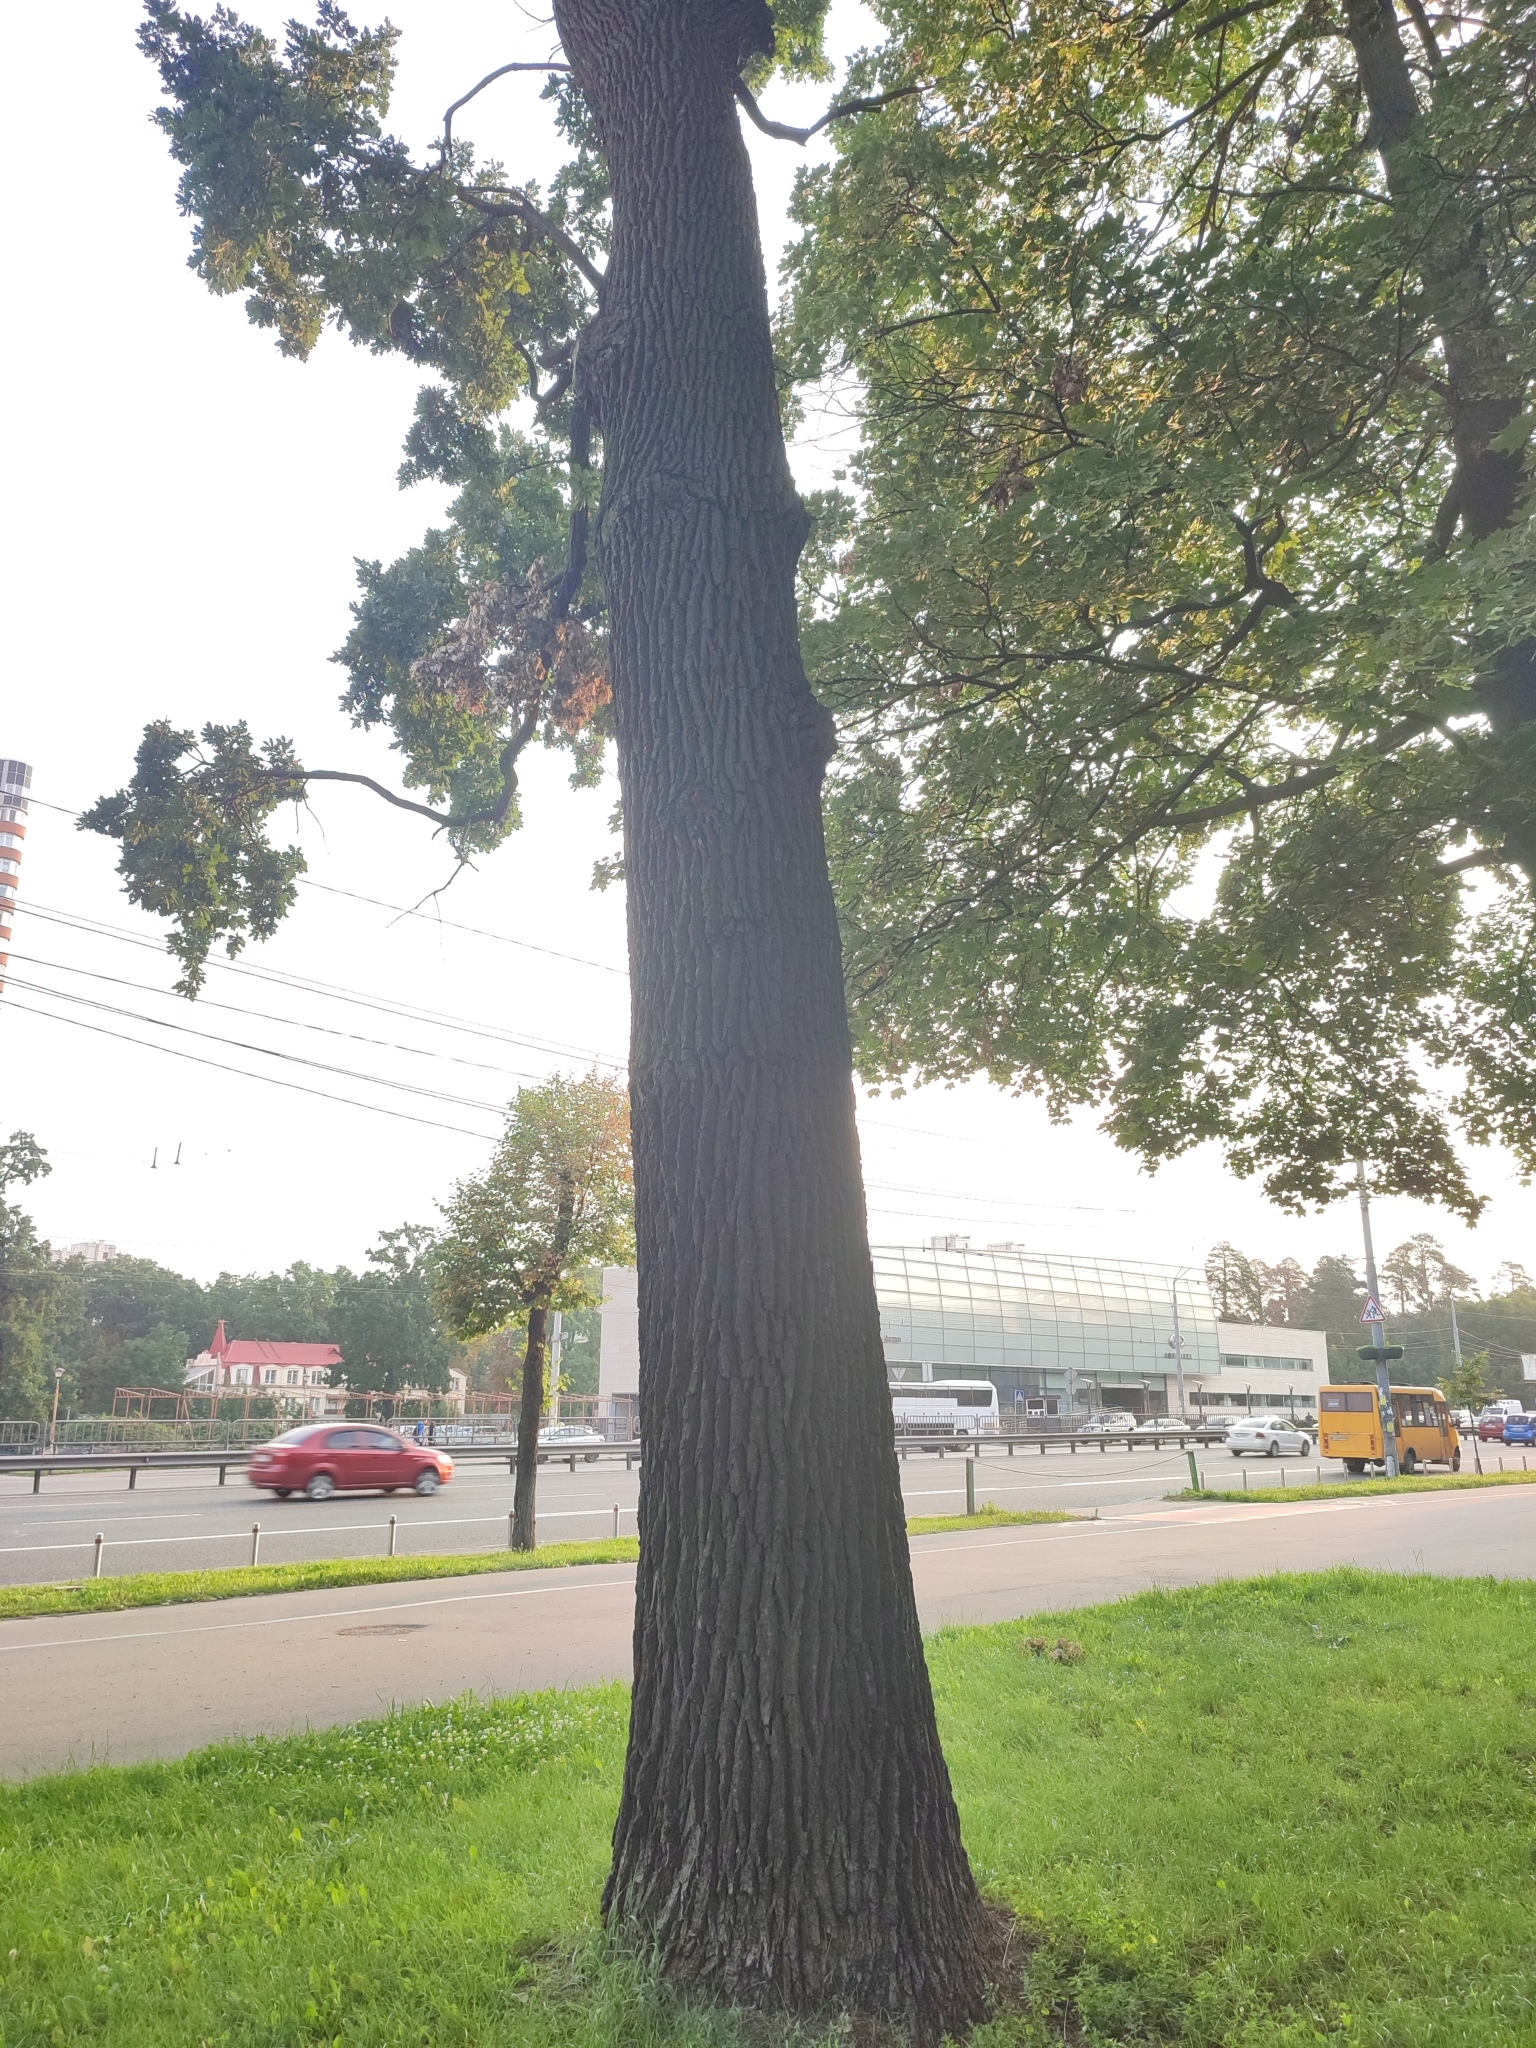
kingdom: Plantae
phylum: Tracheophyta
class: Magnoliopsida
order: Fagales
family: Fagaceae
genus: Quercus
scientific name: Quercus robur
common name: Pedunculate oak
